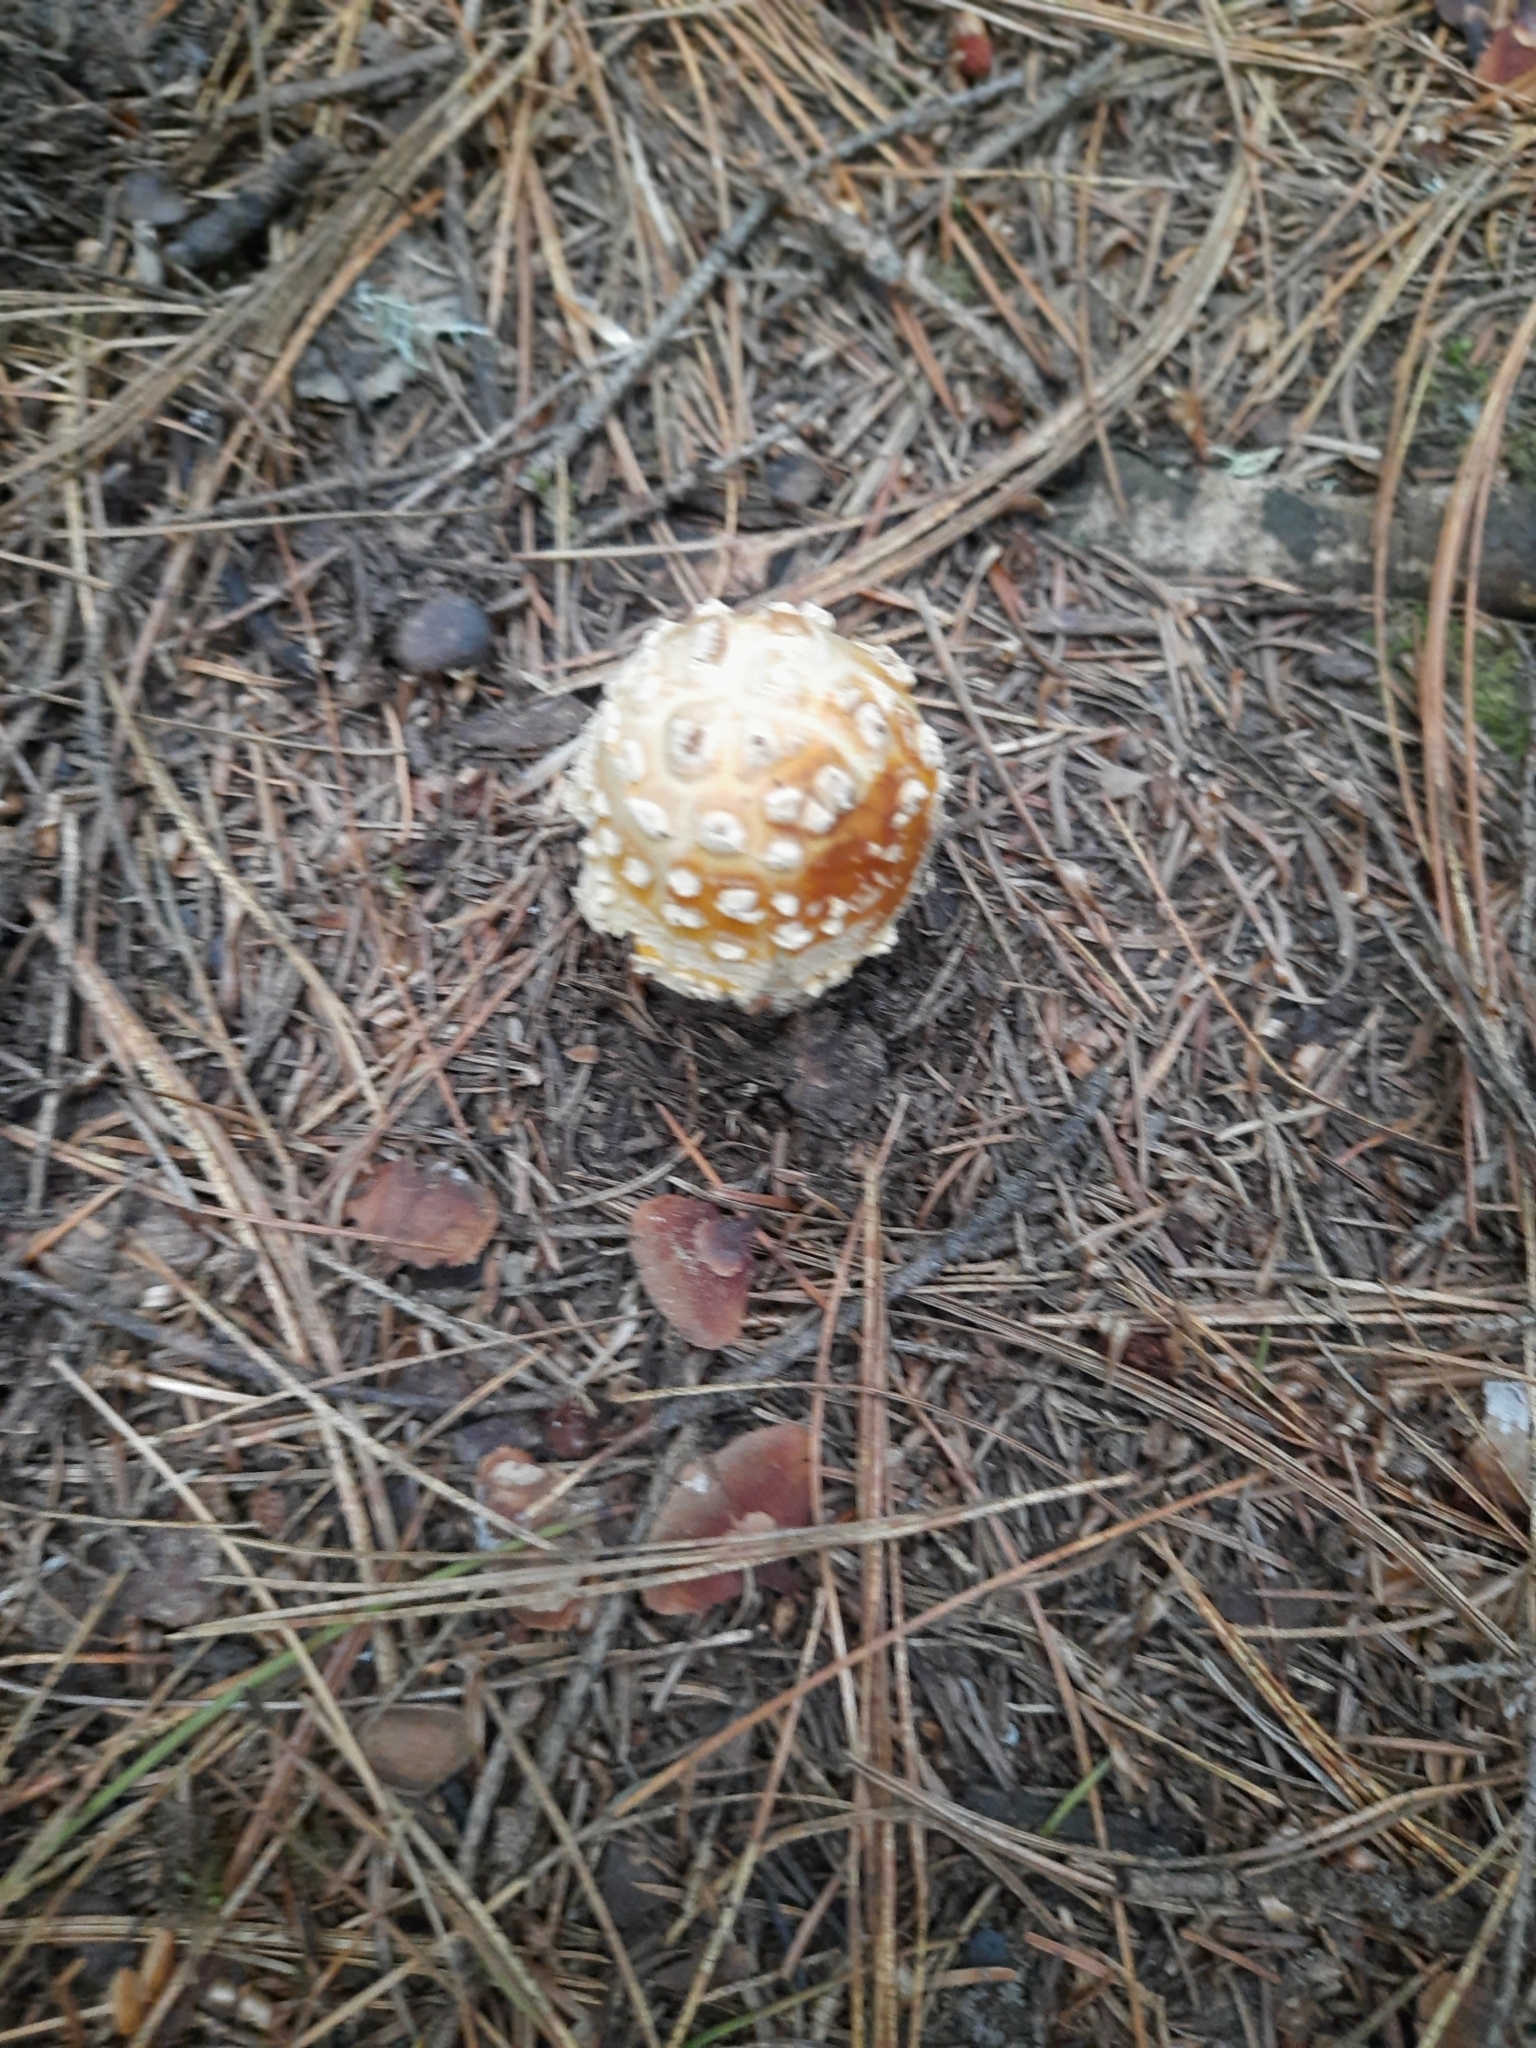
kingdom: Fungi
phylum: Basidiomycota
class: Agaricomycetes
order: Agaricales
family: Amanitaceae
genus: Amanita
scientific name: Amanita regalis
